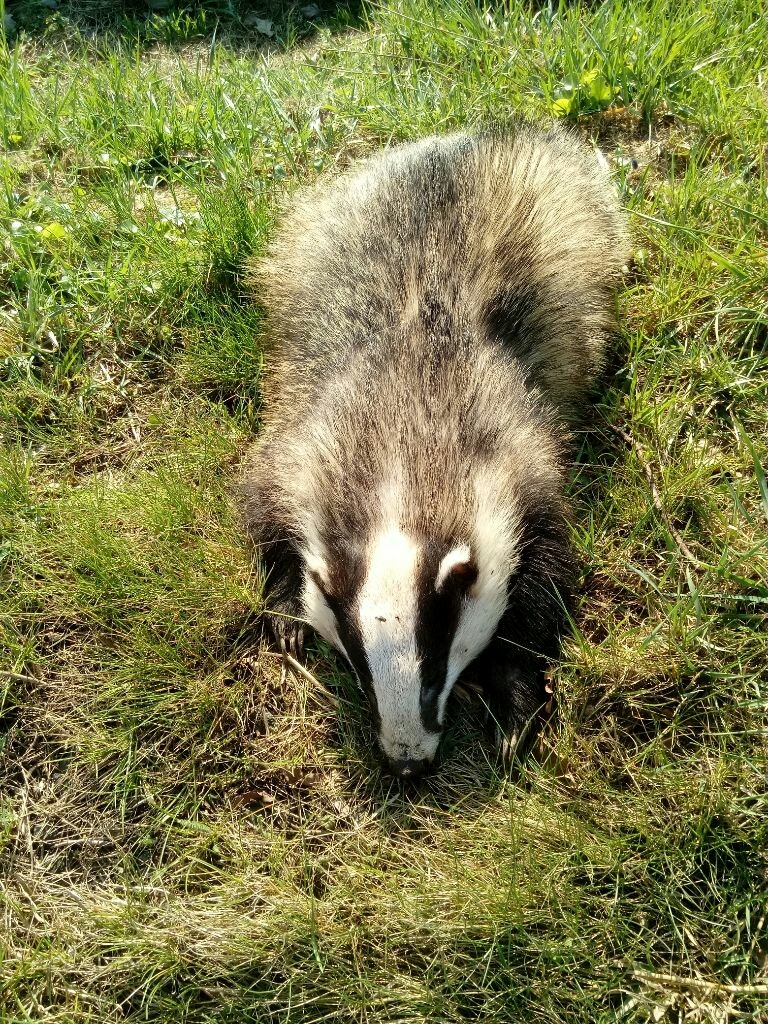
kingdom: Animalia
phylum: Chordata
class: Mammalia
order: Carnivora
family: Mustelidae
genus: Meles
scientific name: Meles meles
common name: Eurasian badger
